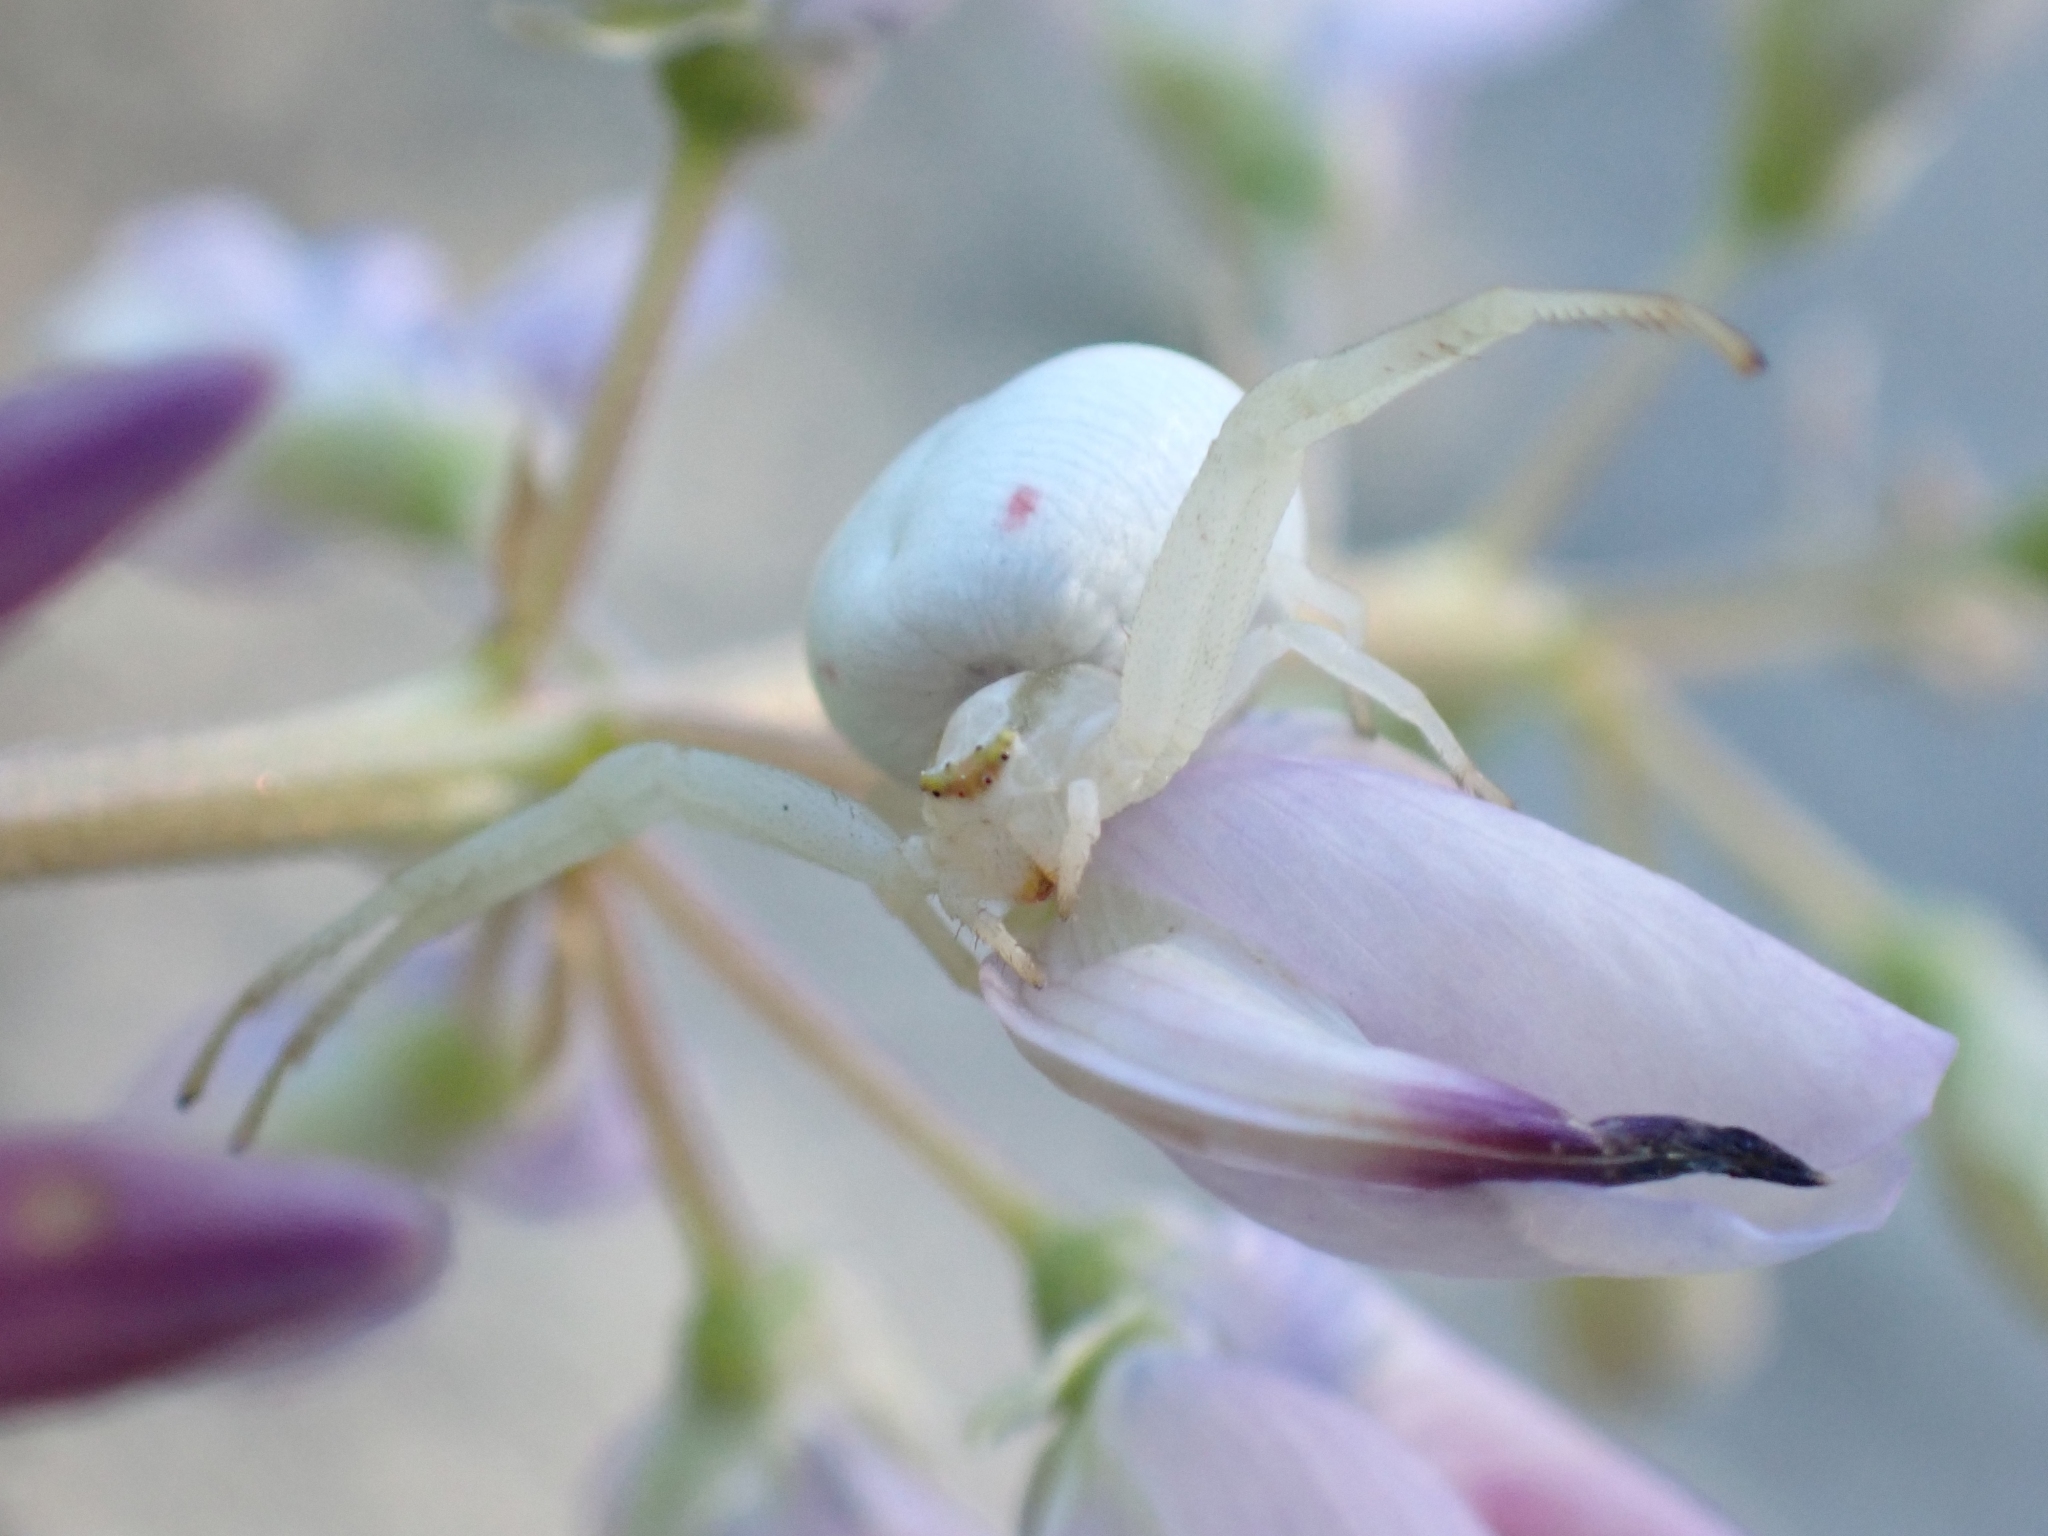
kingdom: Animalia
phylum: Arthropoda
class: Arachnida
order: Araneae
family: Thomisidae
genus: Misumena
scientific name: Misumena vatia
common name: Goldenrod crab spider
